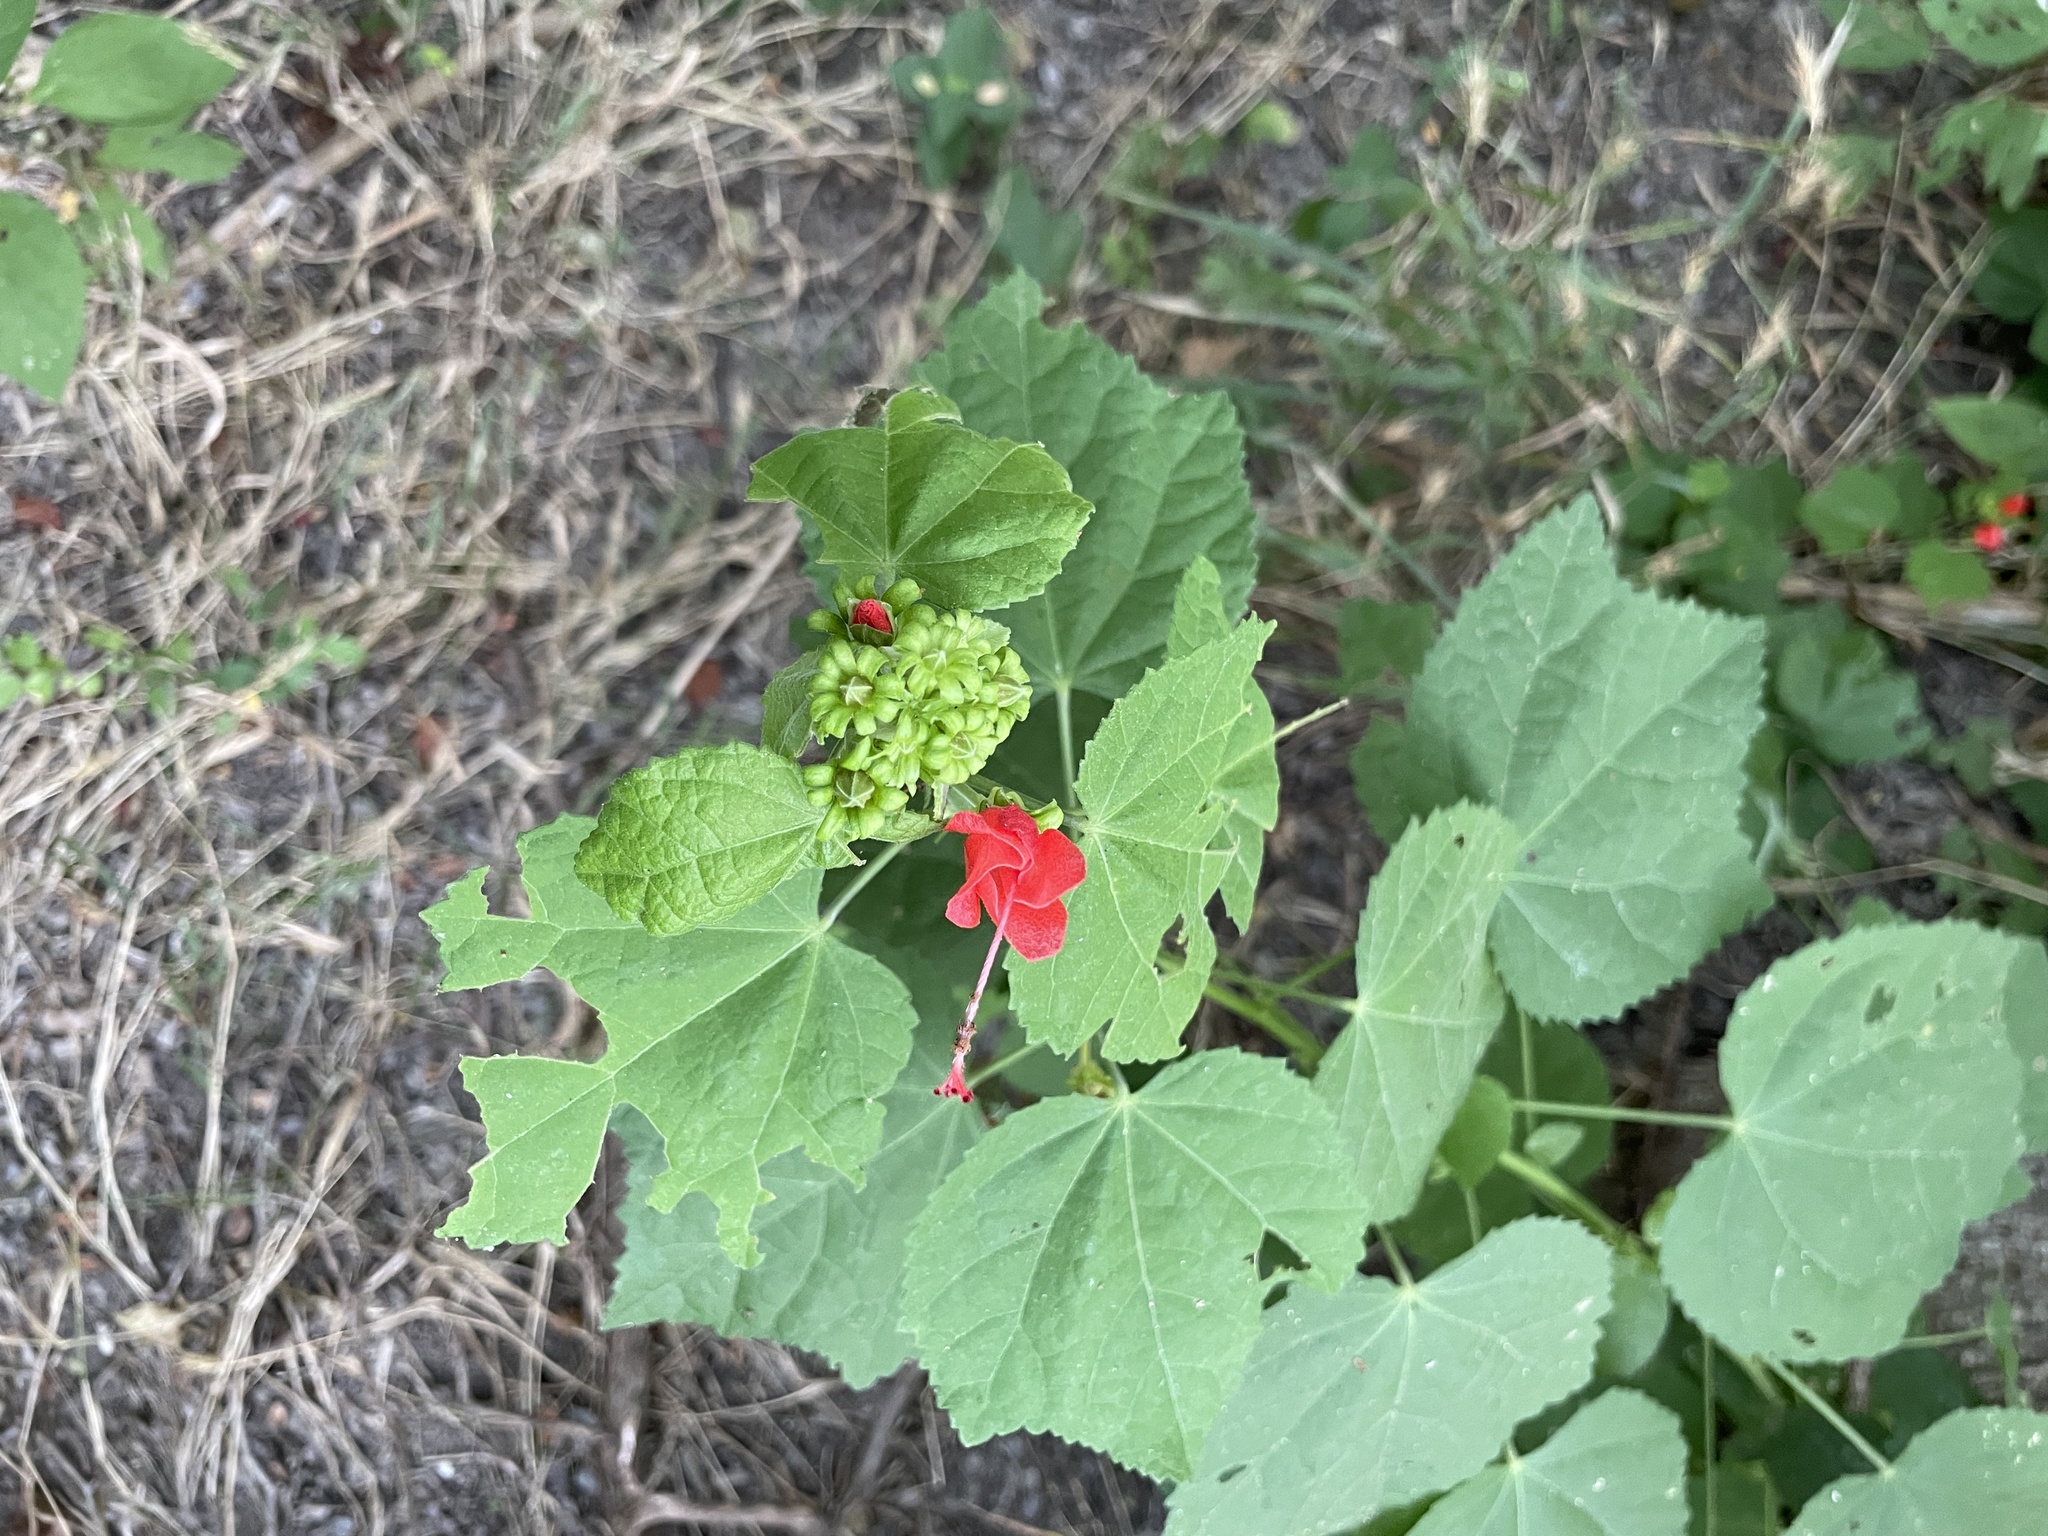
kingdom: Plantae
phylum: Tracheophyta
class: Magnoliopsida
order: Malvales
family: Malvaceae
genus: Malvaviscus
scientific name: Malvaviscus arboreus
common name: Wax mallow
